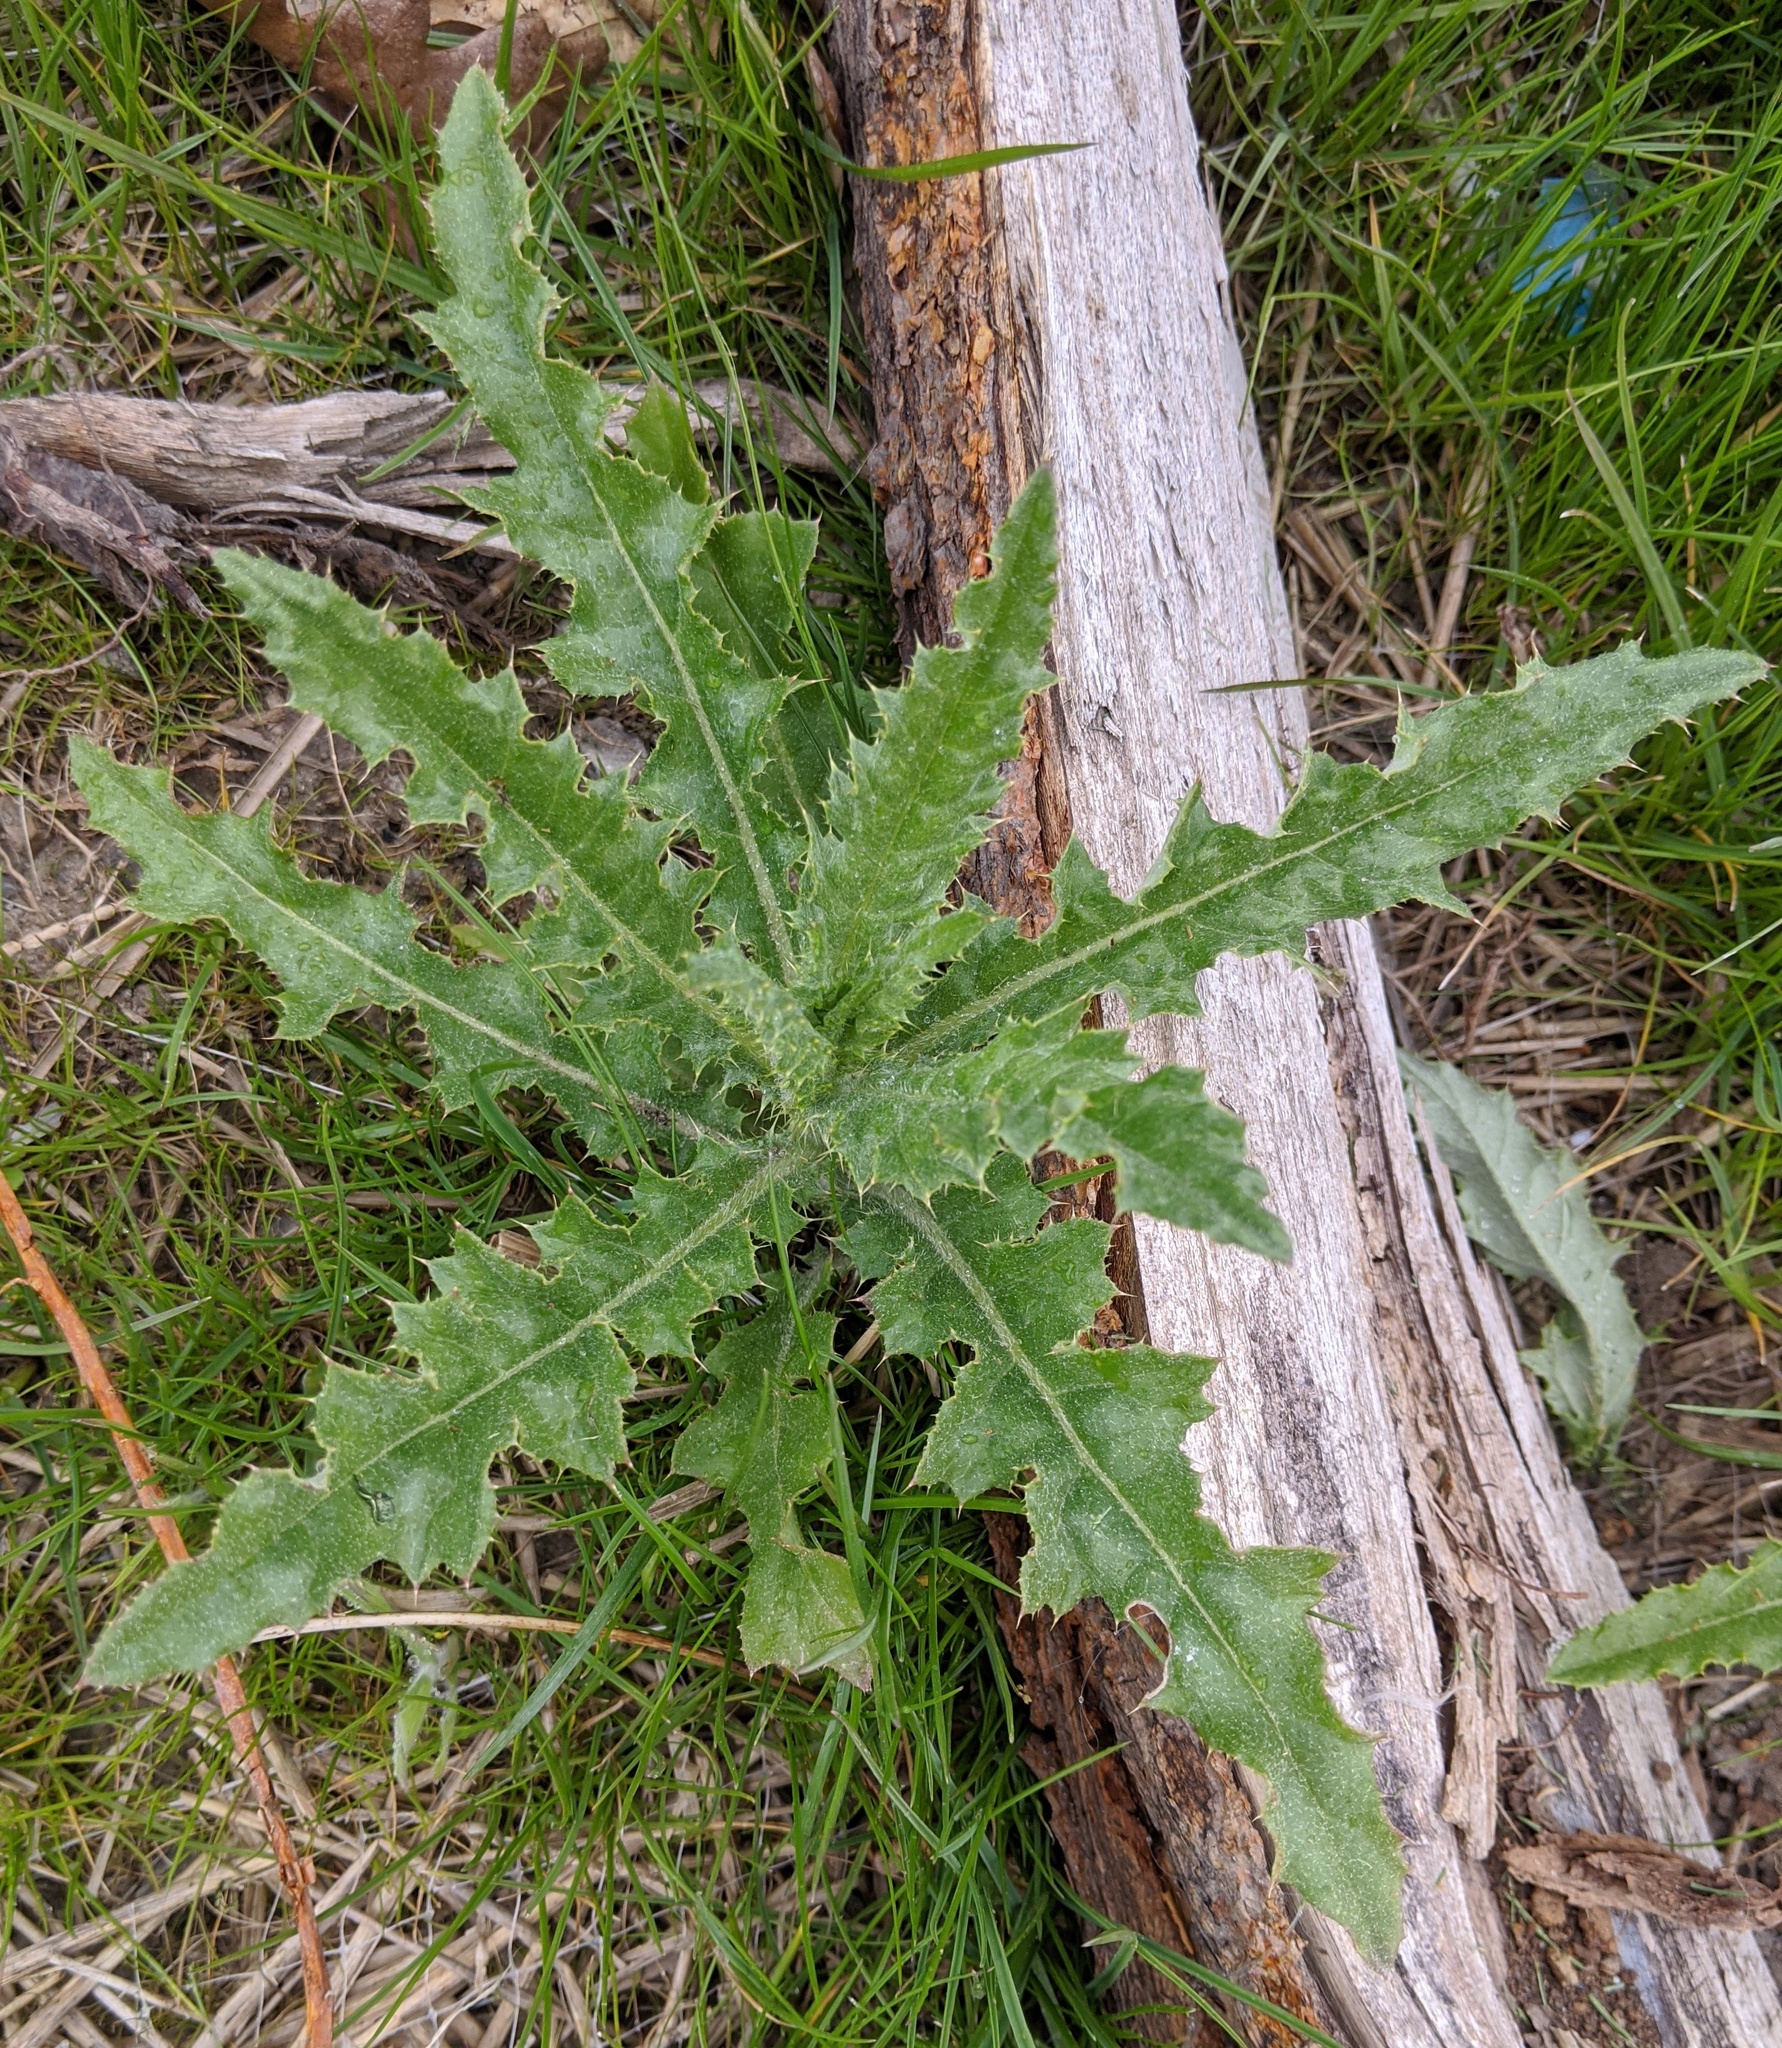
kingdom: Plantae
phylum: Tracheophyta
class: Magnoliopsida
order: Asterales
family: Asteraceae
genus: Cirsium
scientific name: Cirsium arvense
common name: Creeping thistle
